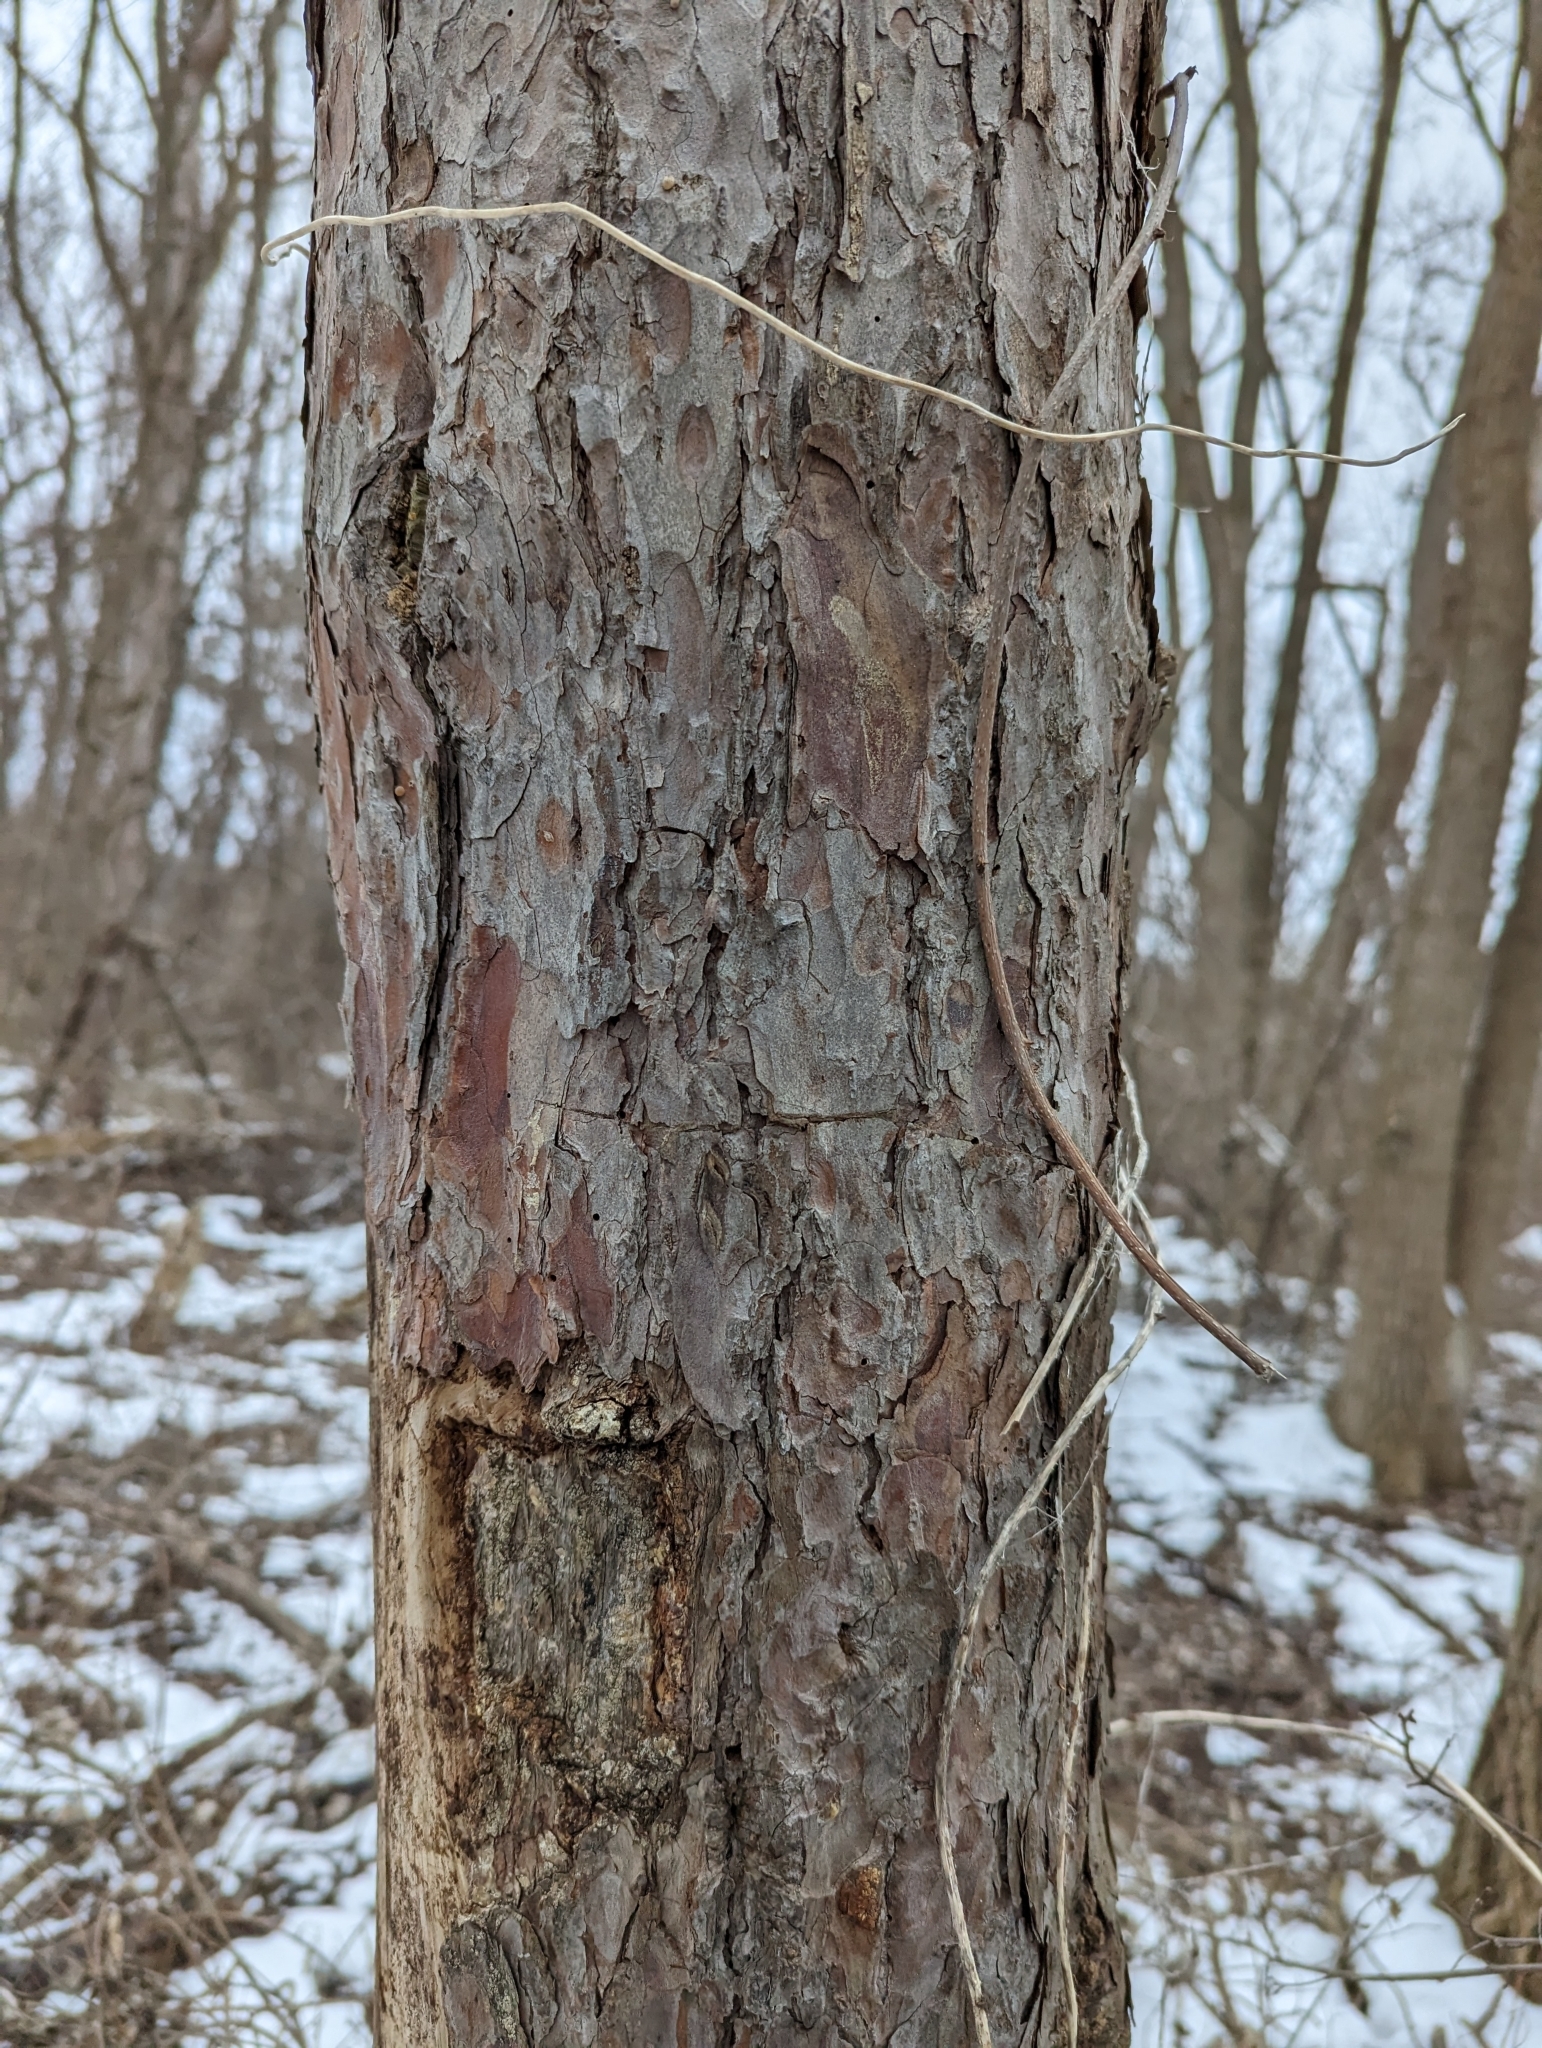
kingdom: Plantae
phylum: Tracheophyta
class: Pinopsida
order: Pinales
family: Pinaceae
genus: Pinus
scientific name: Pinus resinosa
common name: Norway pine
